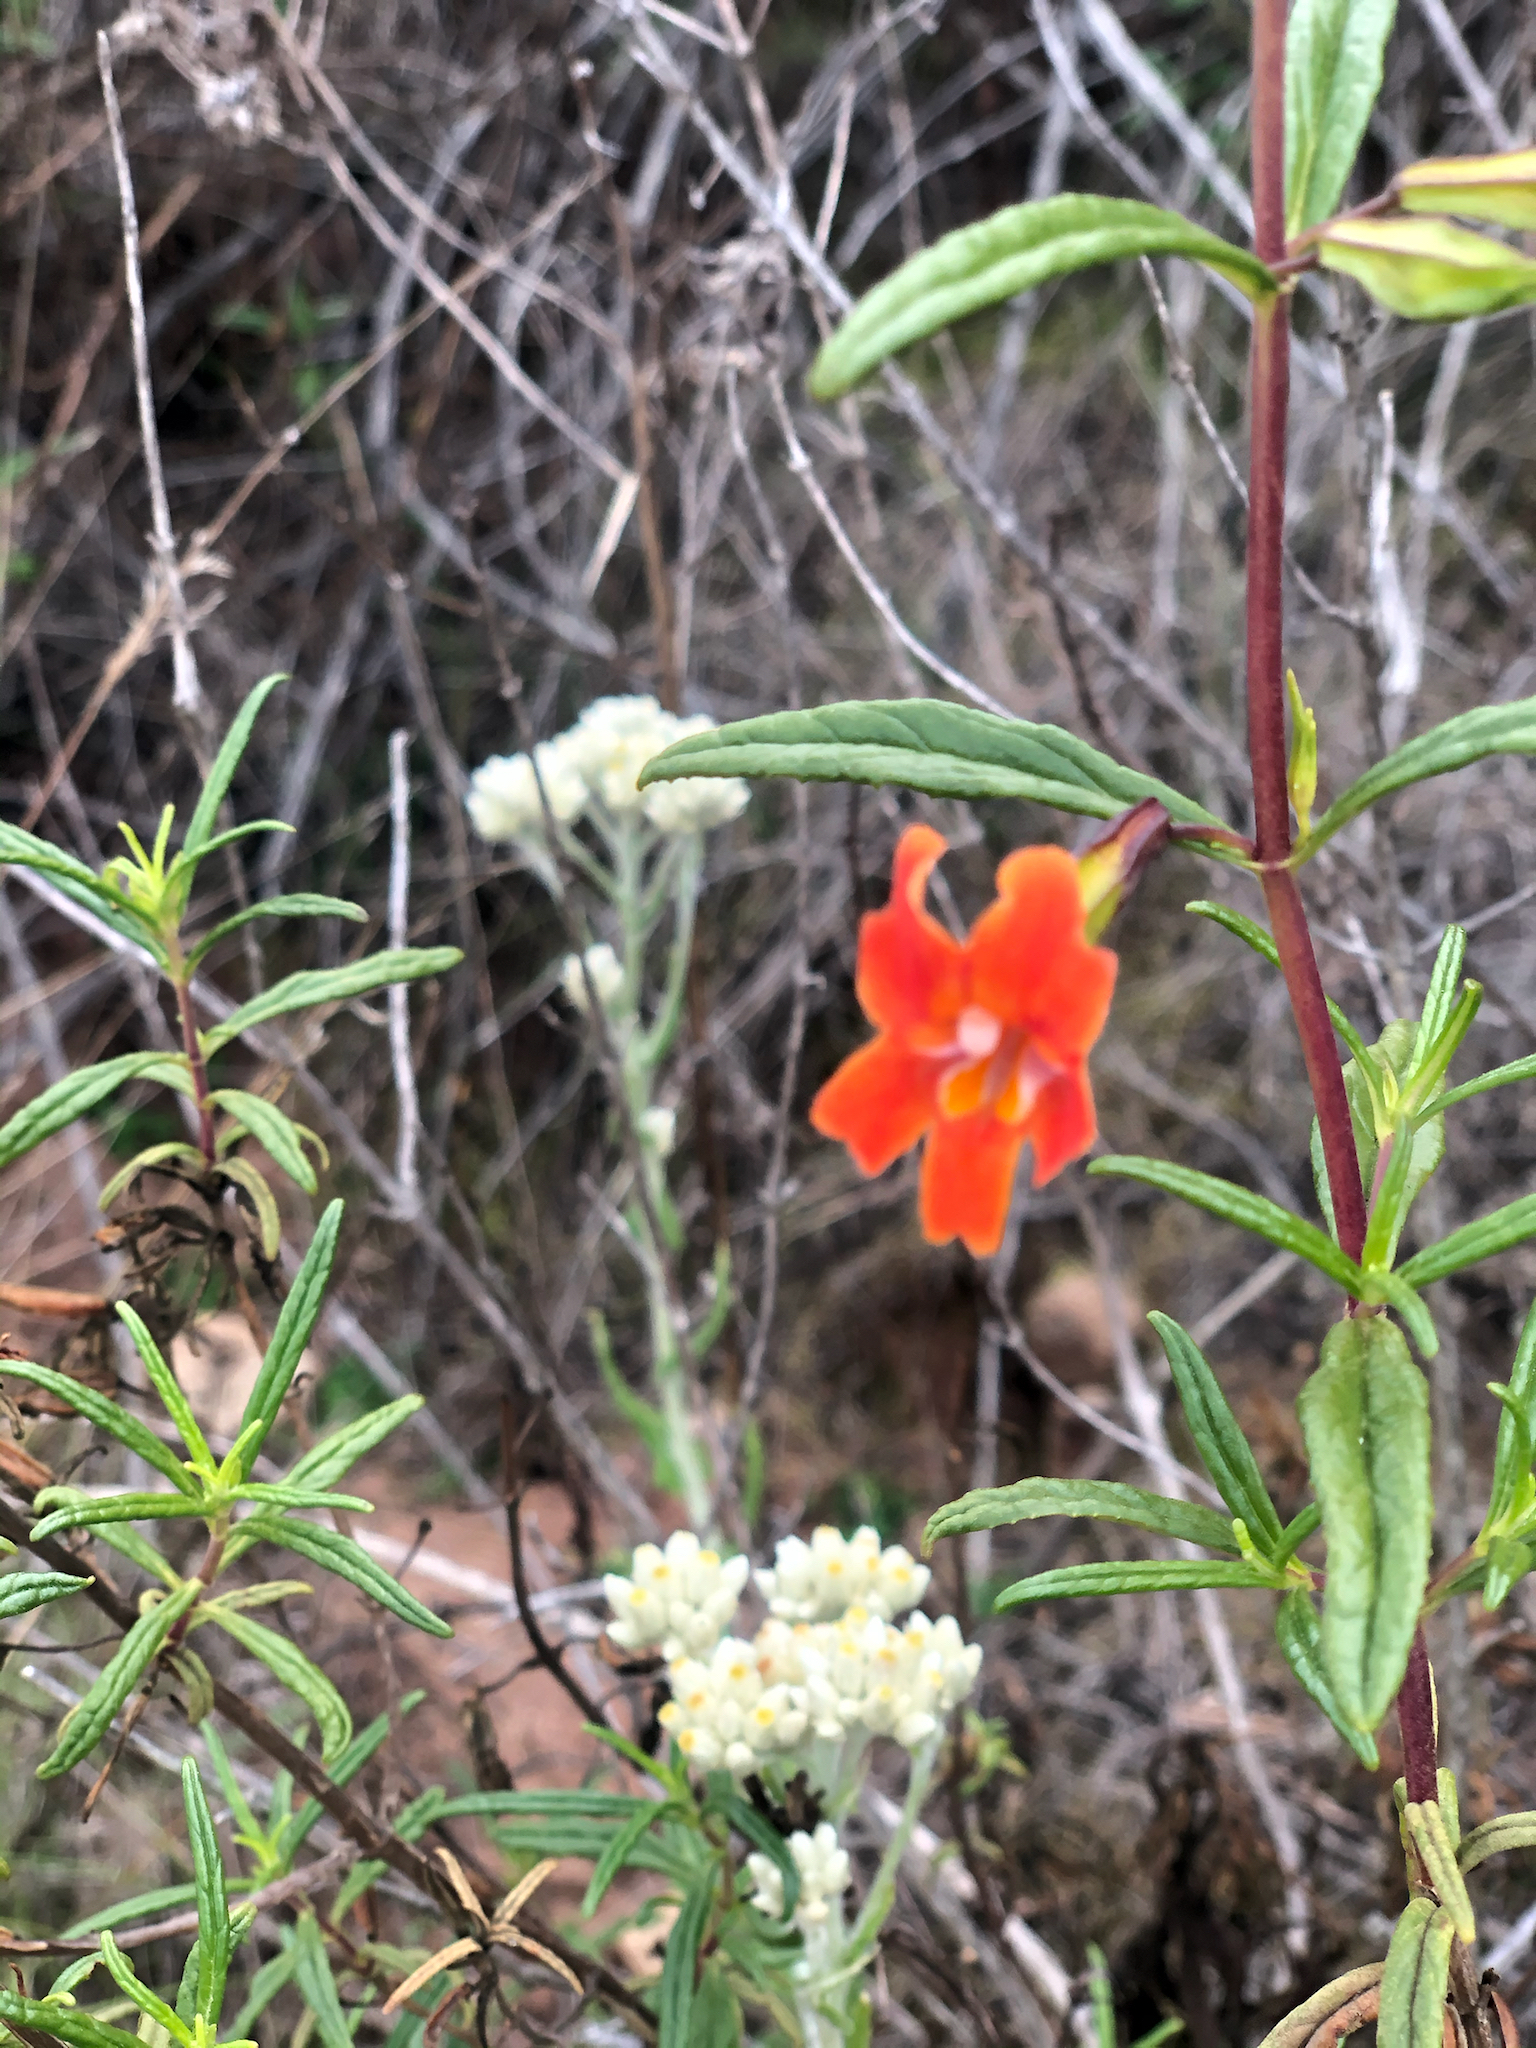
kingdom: Plantae
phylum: Tracheophyta
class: Magnoliopsida
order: Lamiales
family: Phrymaceae
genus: Diplacus
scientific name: Diplacus puniceus
